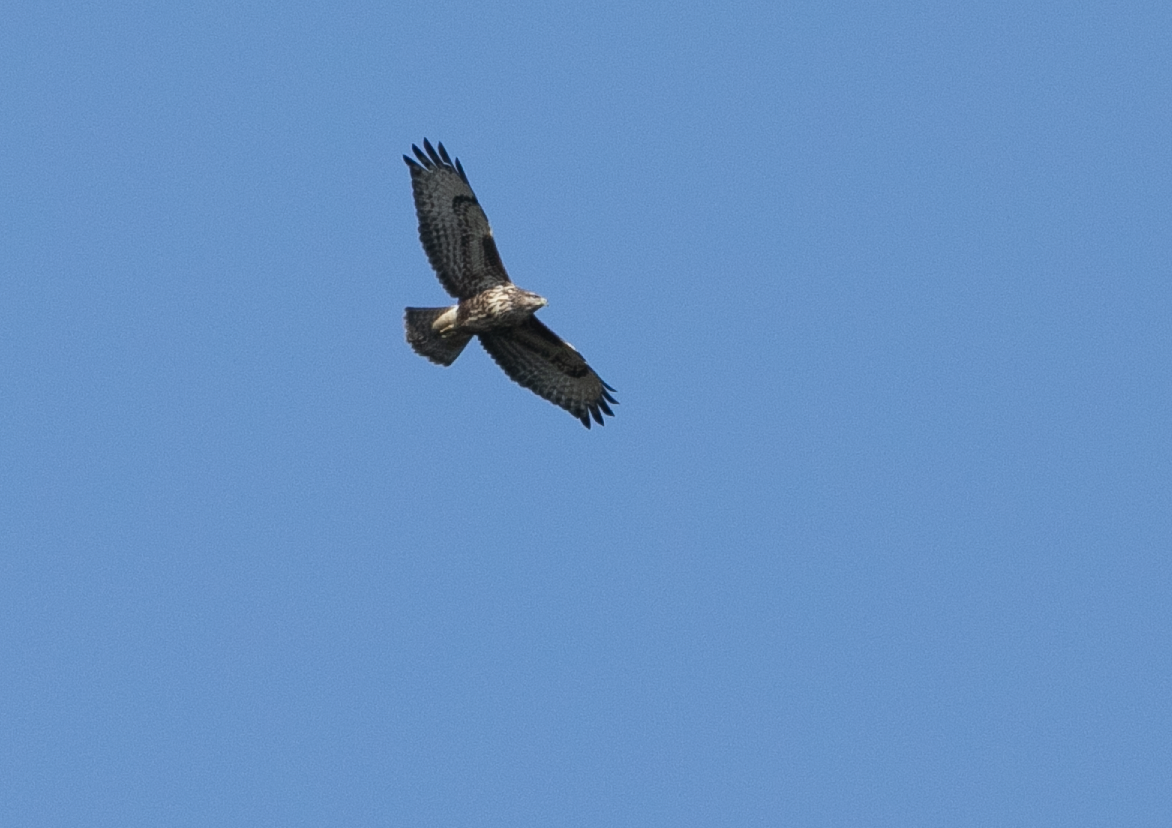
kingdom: Animalia
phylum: Chordata
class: Aves
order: Accipitriformes
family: Accipitridae
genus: Buteo
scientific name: Buteo buteo
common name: Common buzzard
